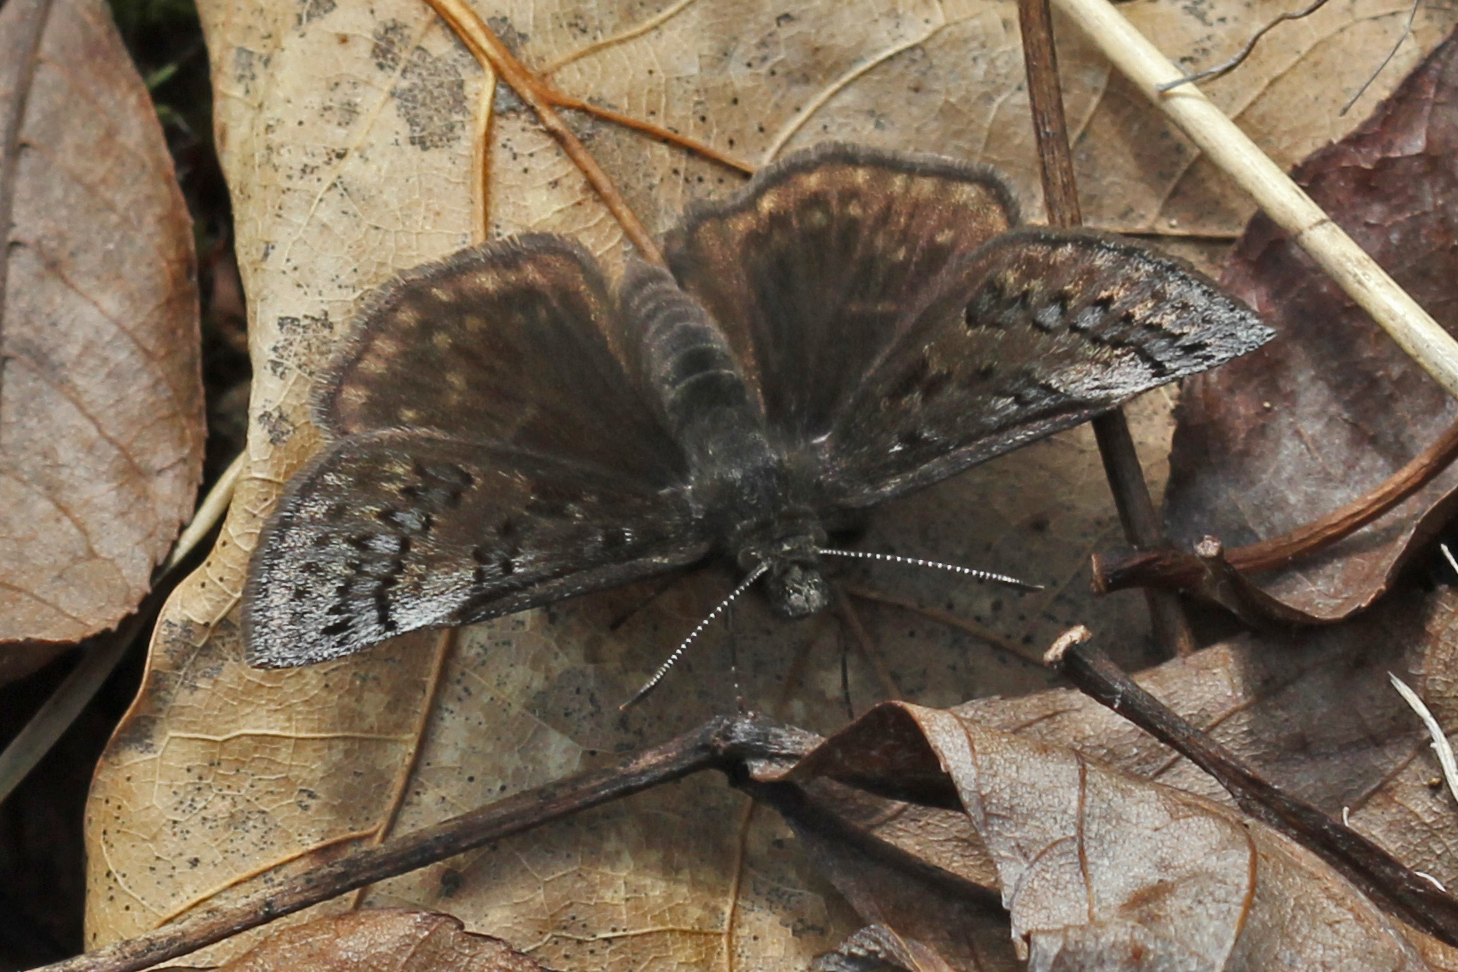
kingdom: Animalia
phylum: Arthropoda
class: Insecta
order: Lepidoptera
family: Hesperiidae
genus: Erynnis
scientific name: Erynnis brizo
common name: Sleepy duskywing
